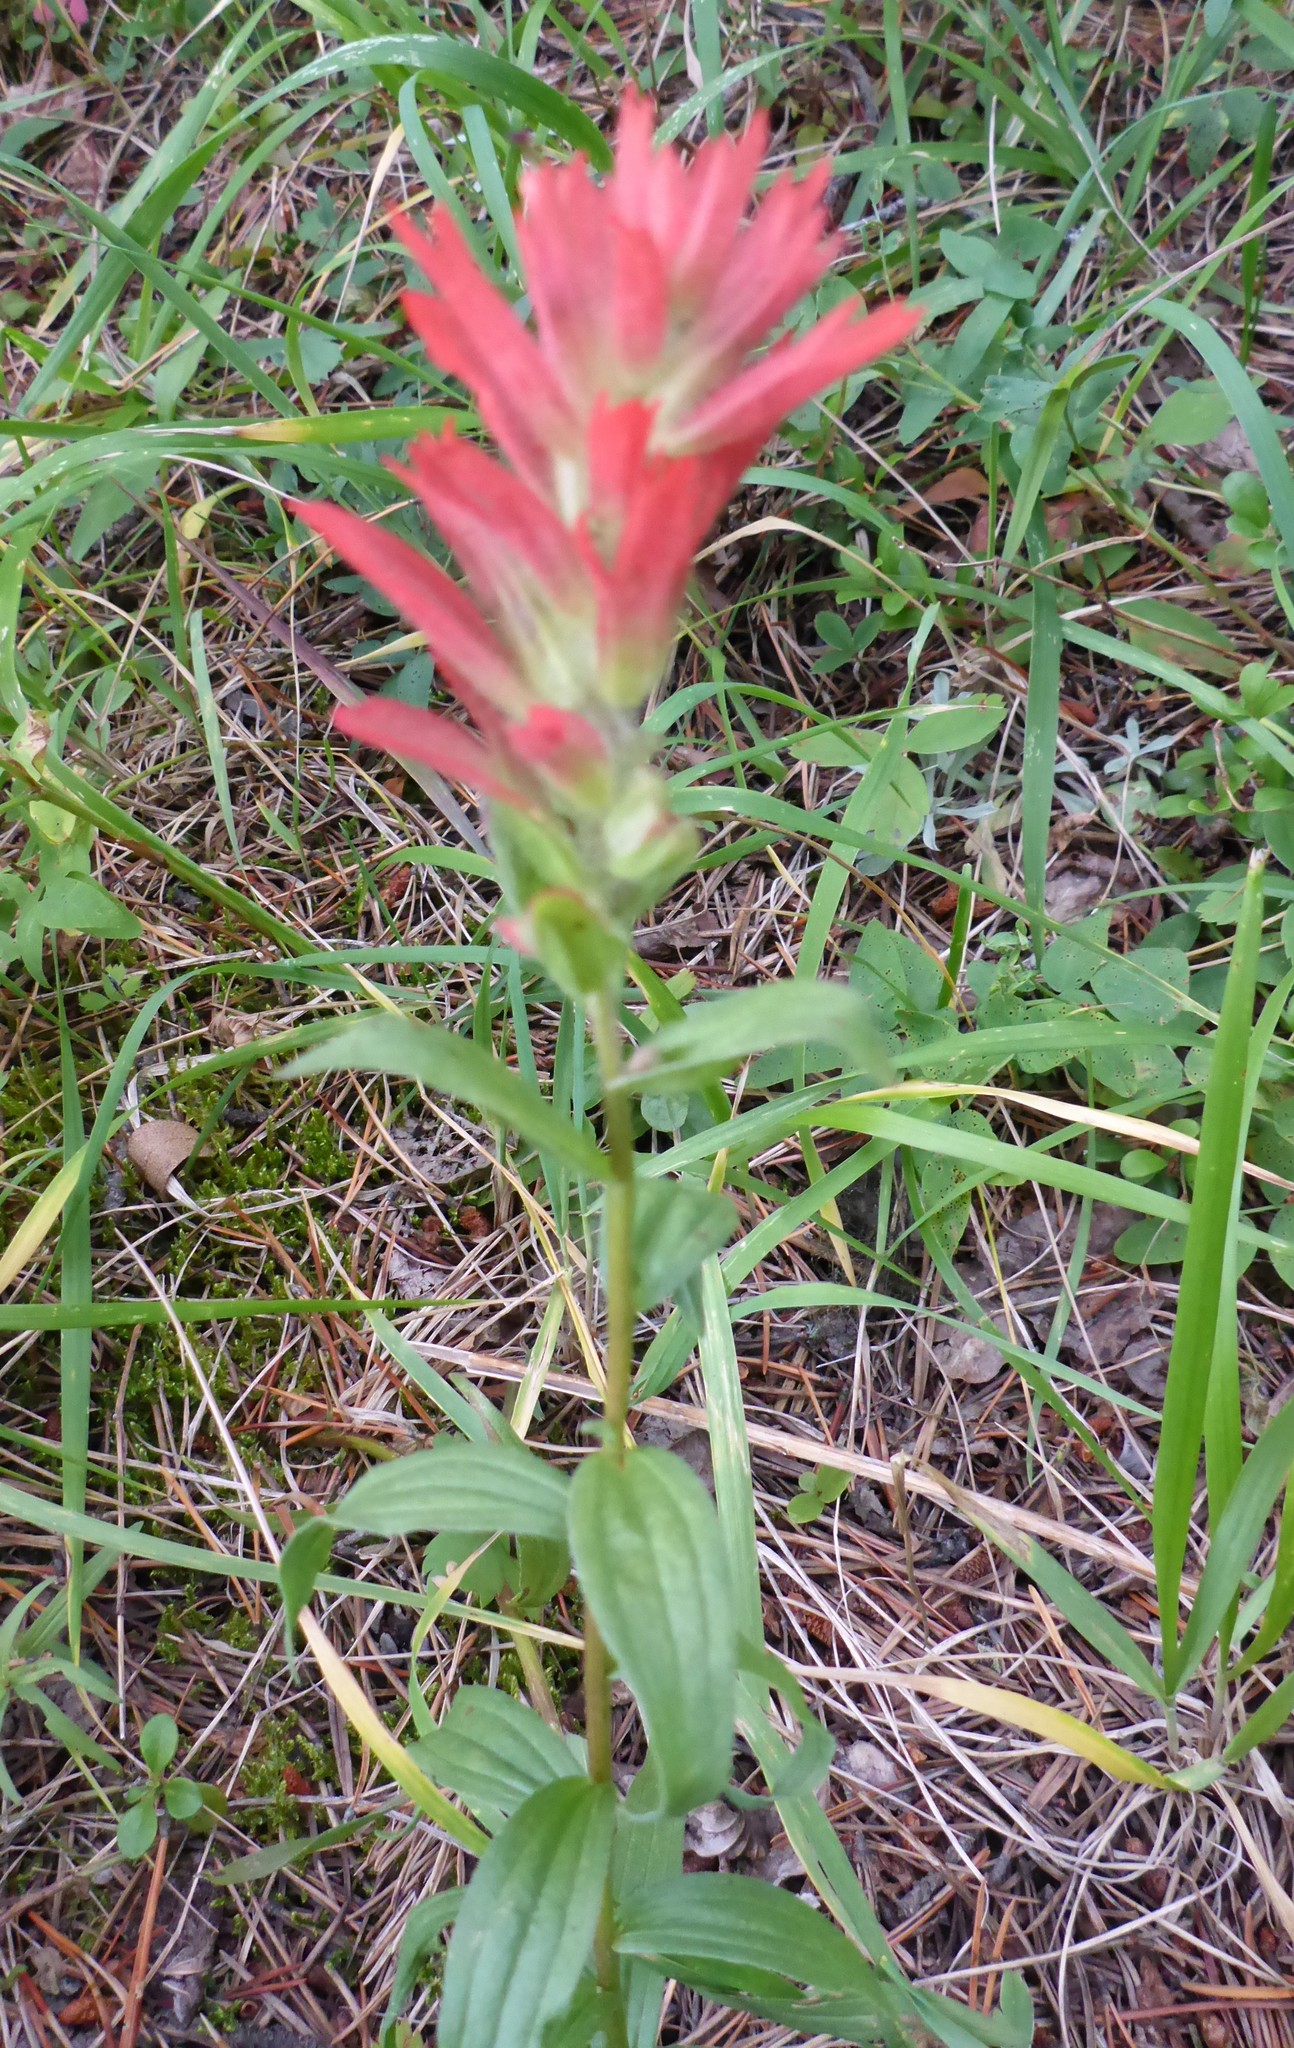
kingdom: Plantae
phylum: Tracheophyta
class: Magnoliopsida
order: Lamiales
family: Orobanchaceae
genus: Castilleja
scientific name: Castilleja miniata
